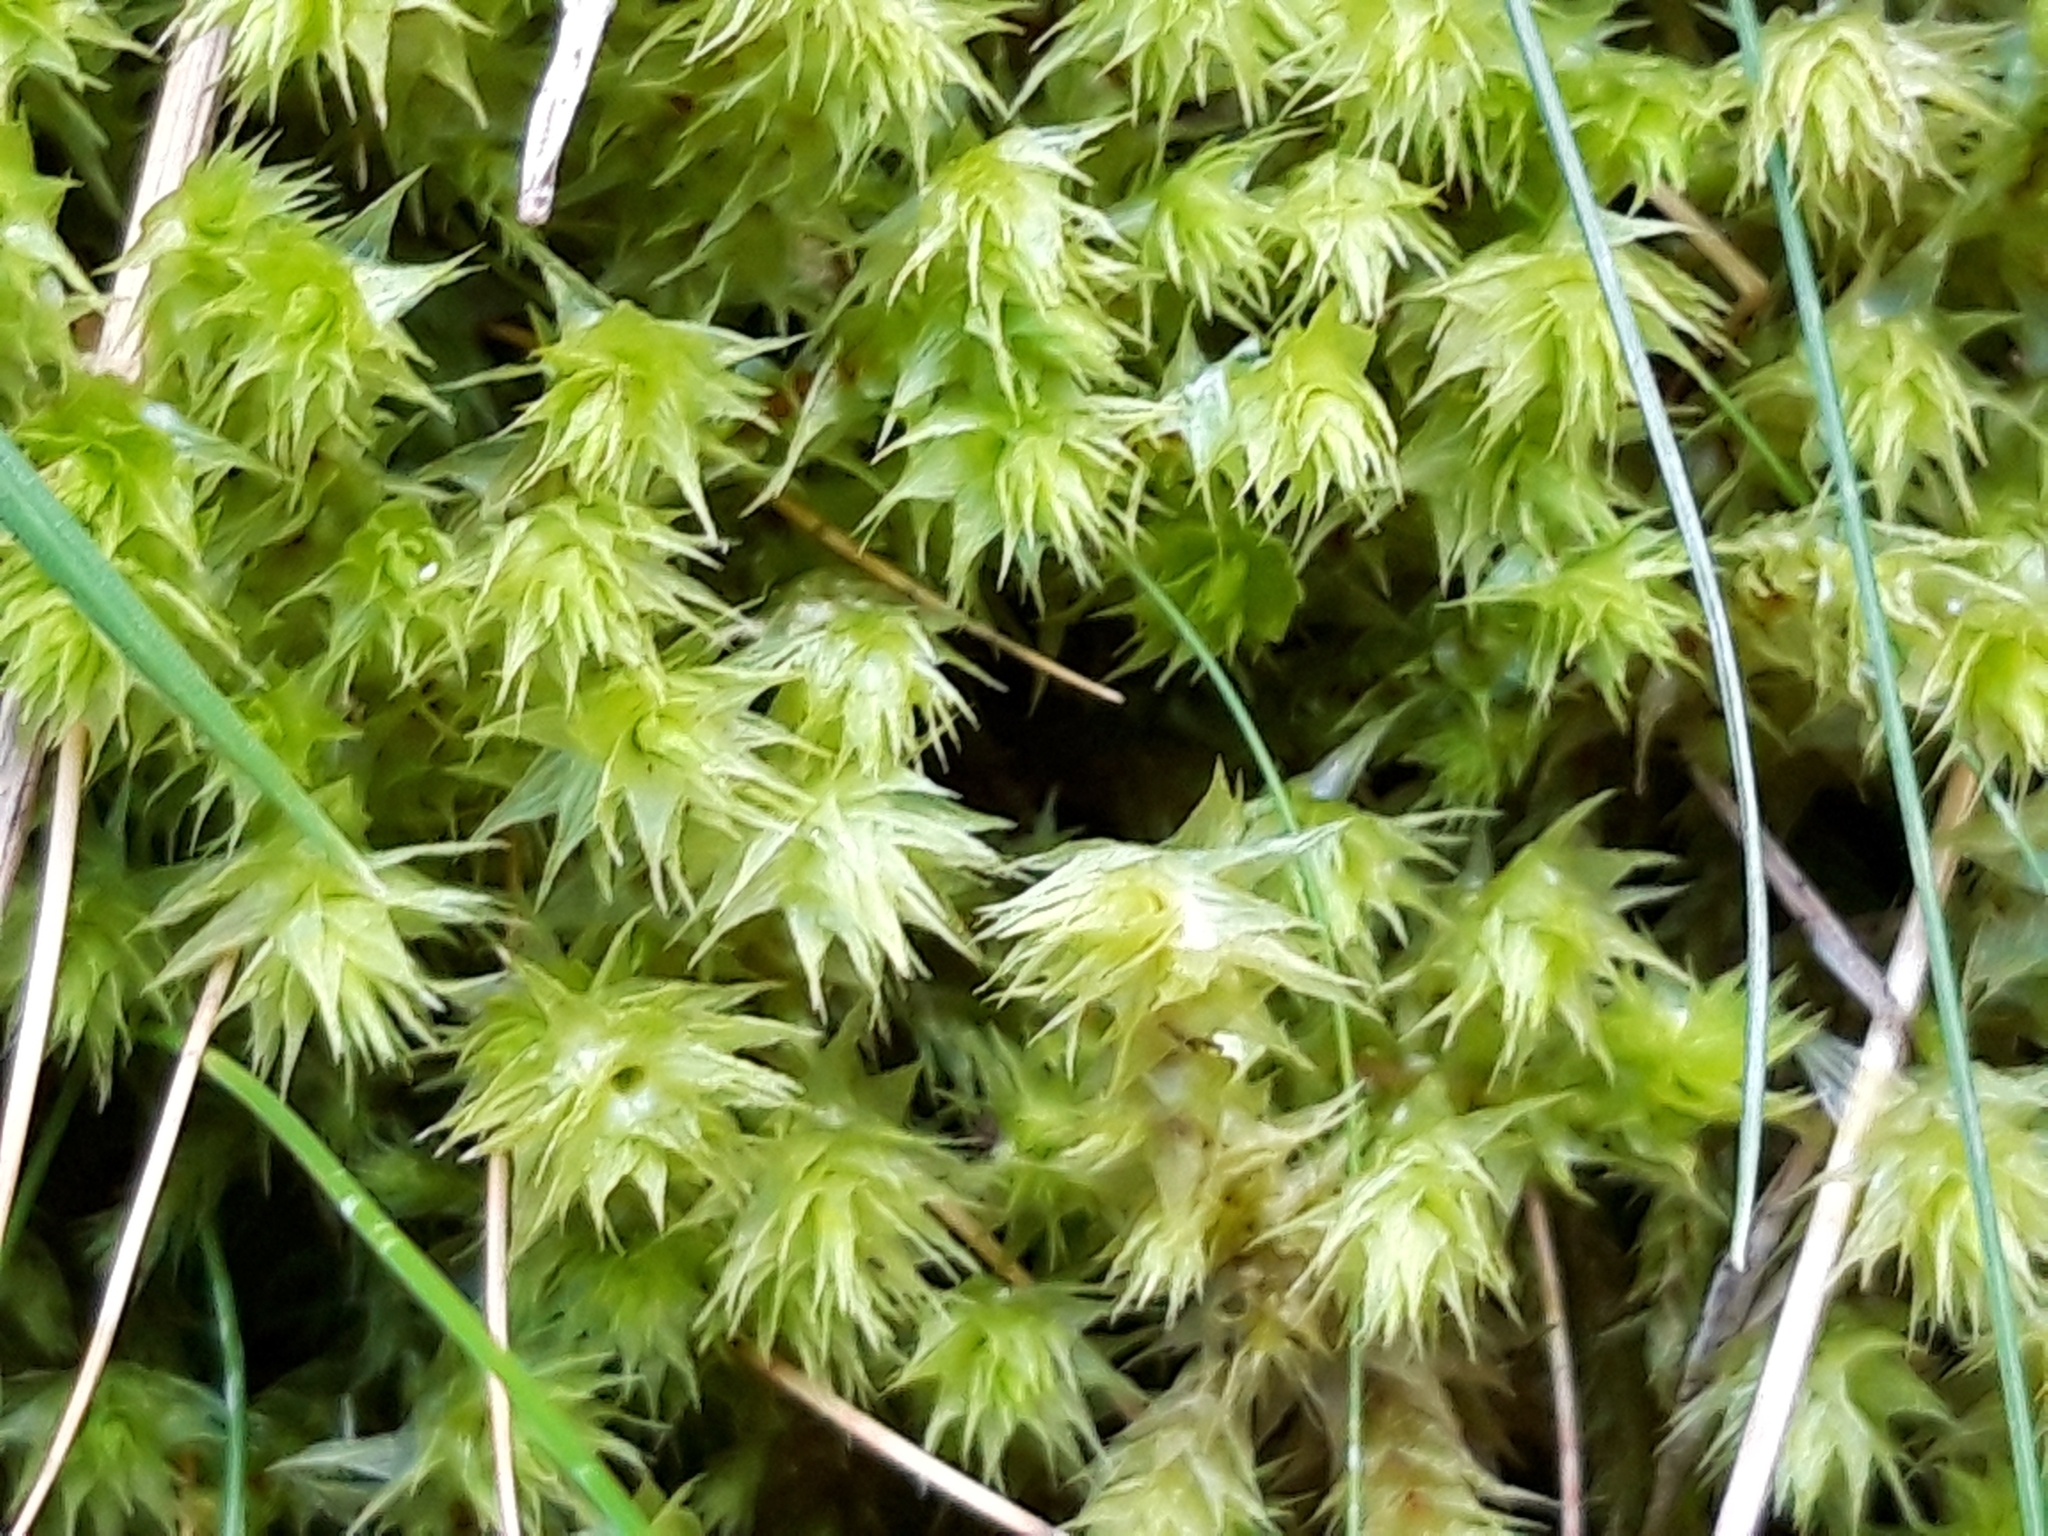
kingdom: Plantae
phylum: Bryophyta
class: Bryopsida
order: Hypnales
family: Hylocomiaceae
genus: Hylocomiadelphus
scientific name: Hylocomiadelphus triquetrus
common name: Rough goose neck moss
